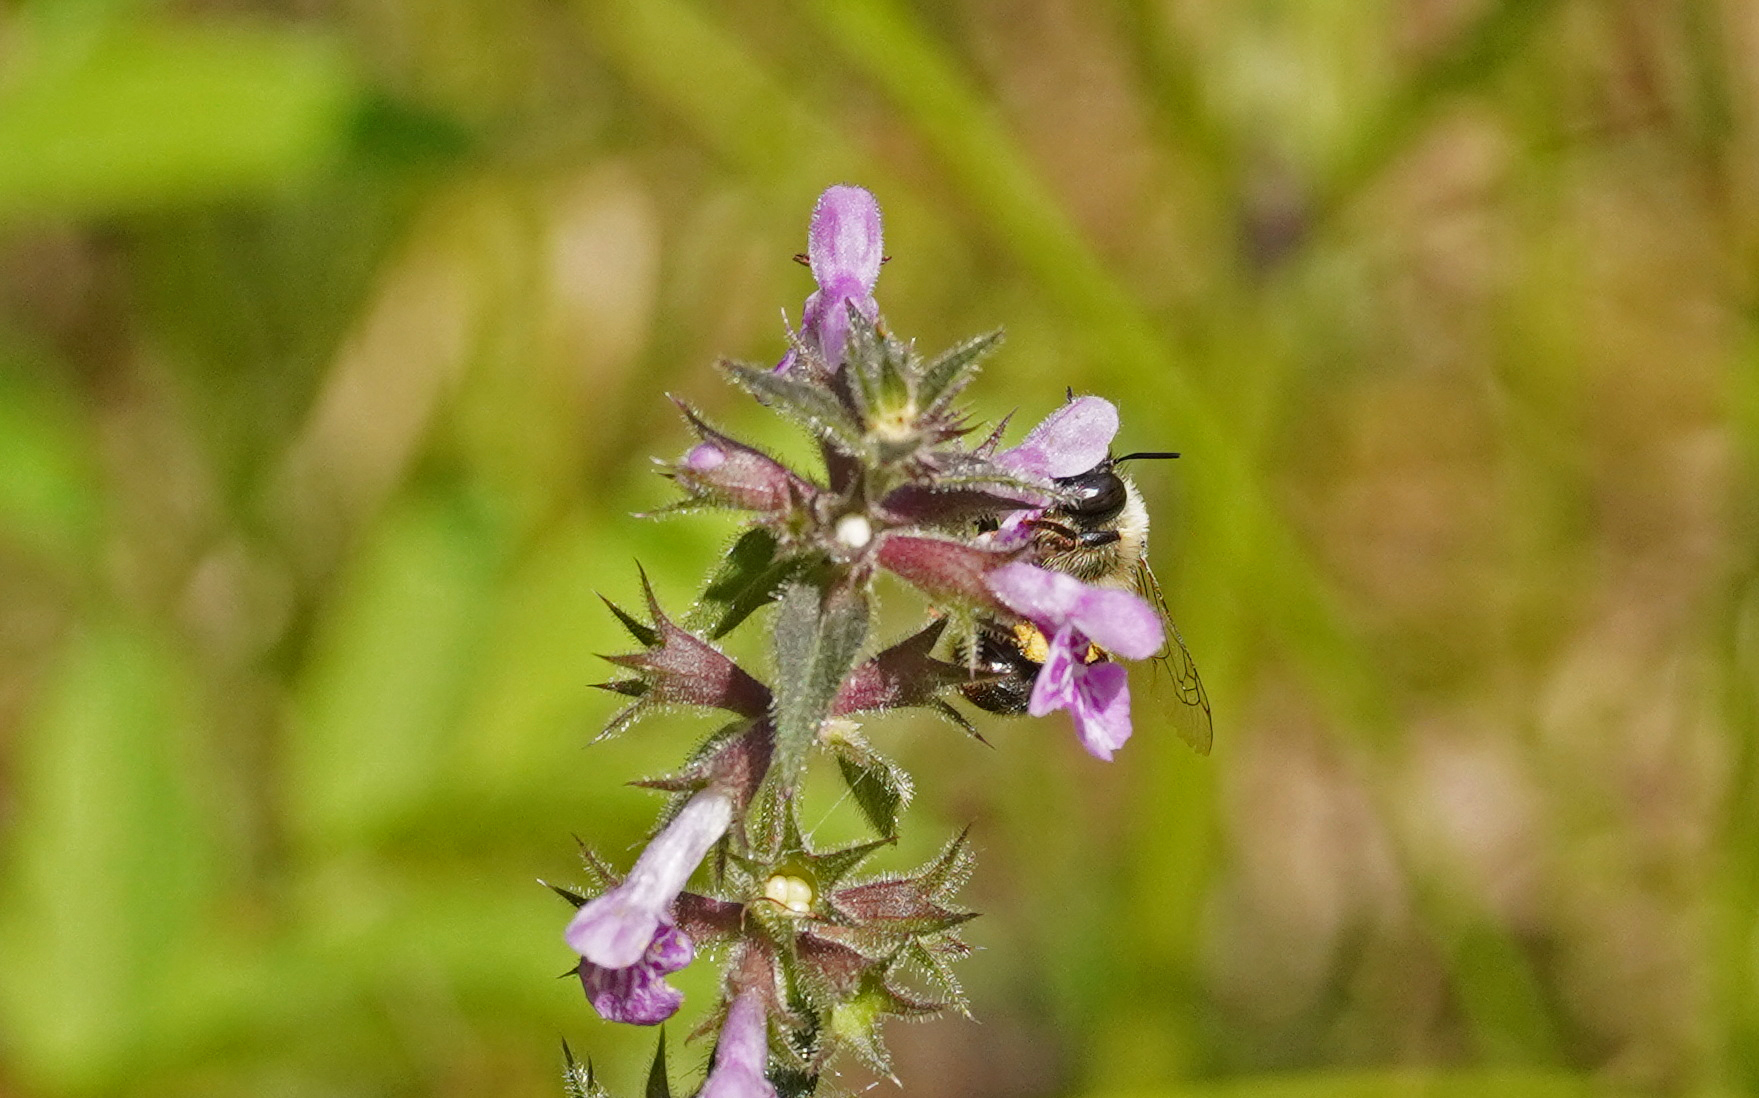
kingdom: Animalia
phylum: Arthropoda
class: Insecta
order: Hymenoptera
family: Apidae
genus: Anthophora
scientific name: Anthophora furcata
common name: Fork-tailed flower bee
